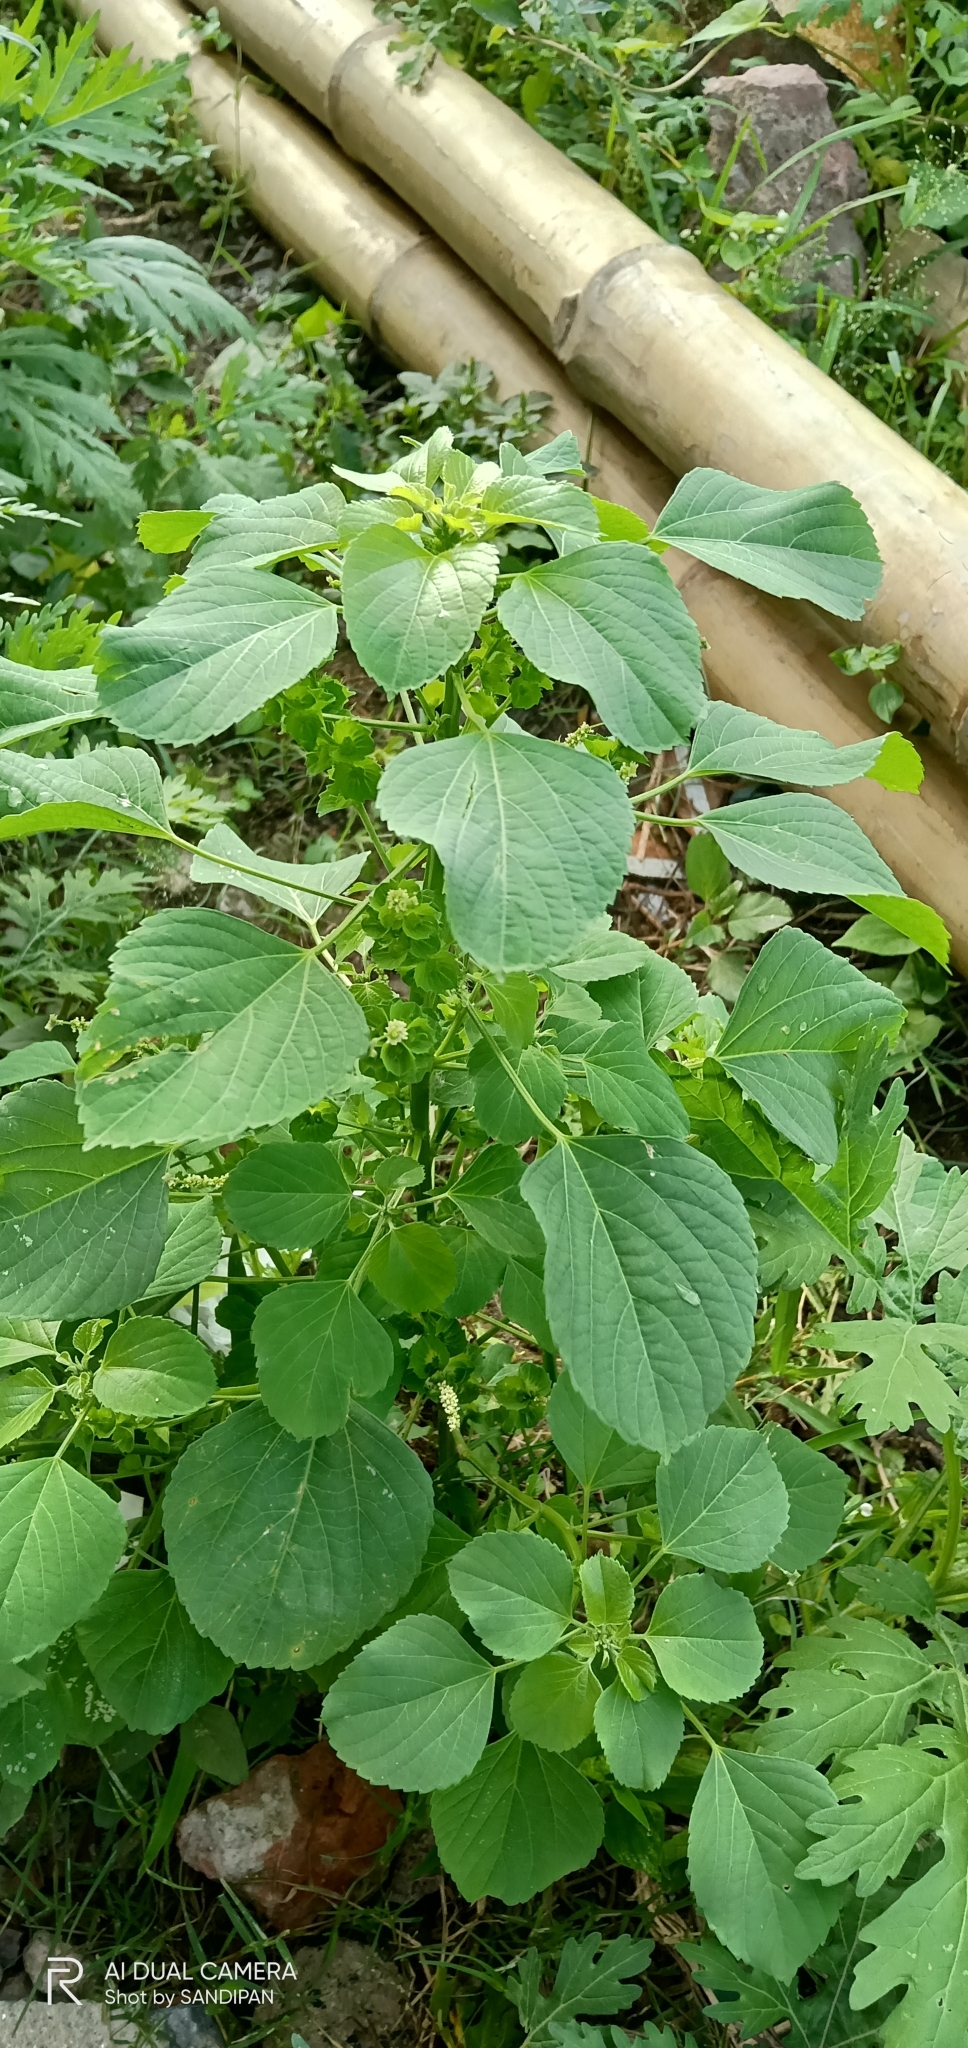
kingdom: Plantae
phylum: Tracheophyta
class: Magnoliopsida
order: Malpighiales
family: Euphorbiaceae
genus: Acalypha
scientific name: Acalypha indica
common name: Indian acalypha
